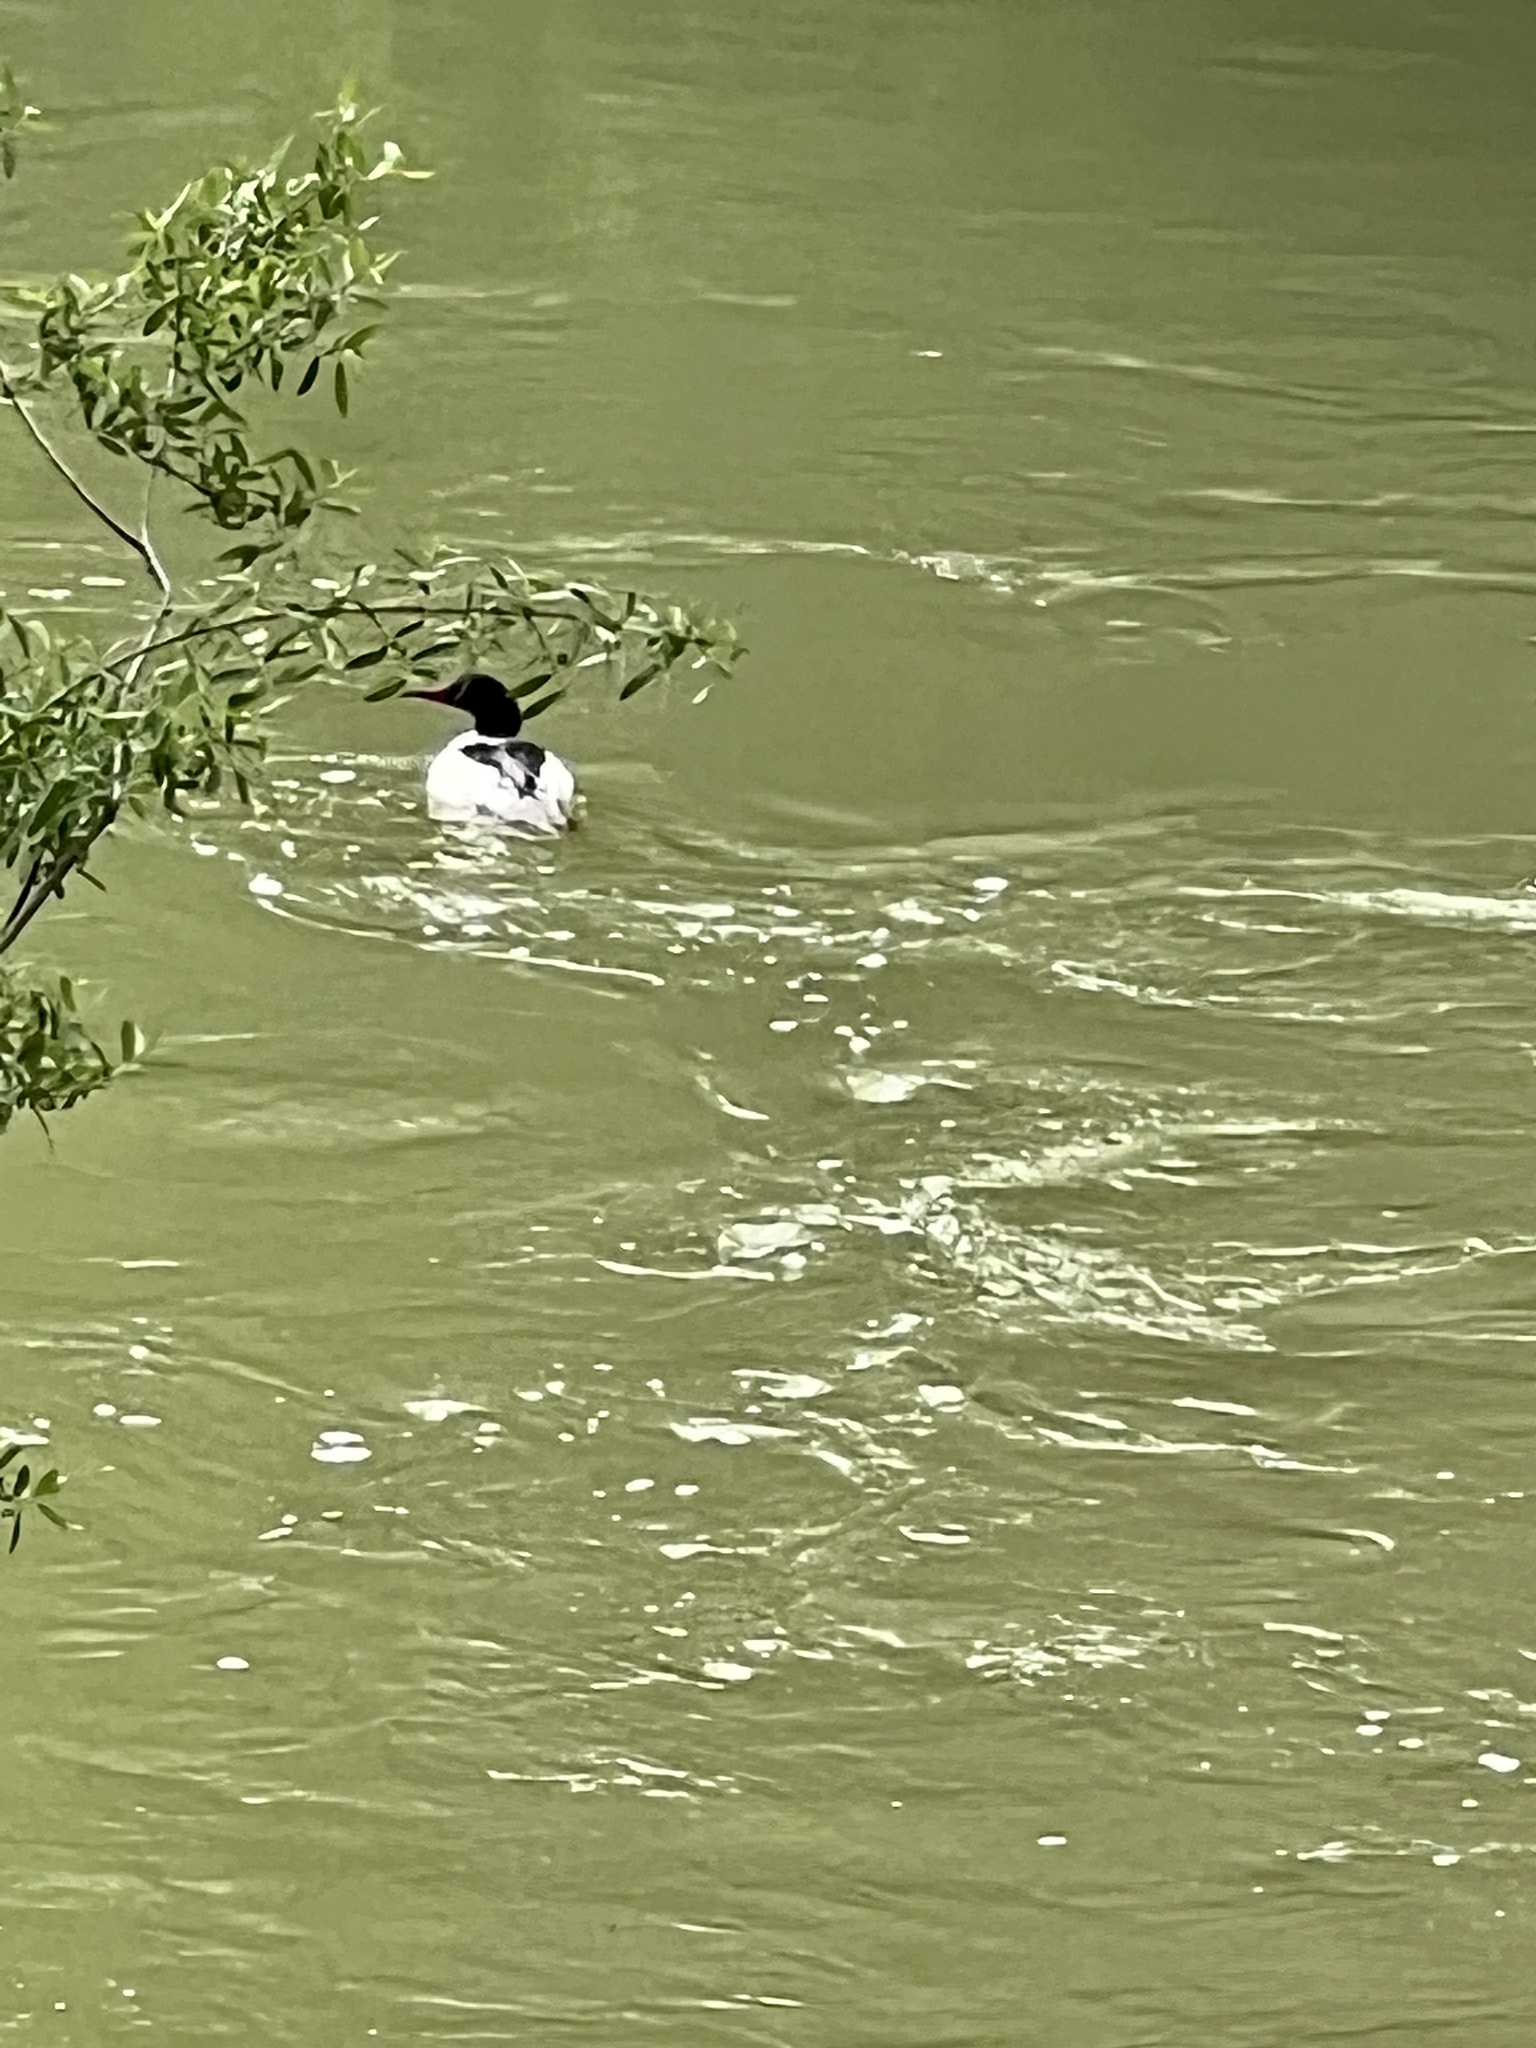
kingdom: Animalia
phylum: Chordata
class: Aves
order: Anseriformes
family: Anatidae
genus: Mergus
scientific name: Mergus merganser
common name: Common merganser
